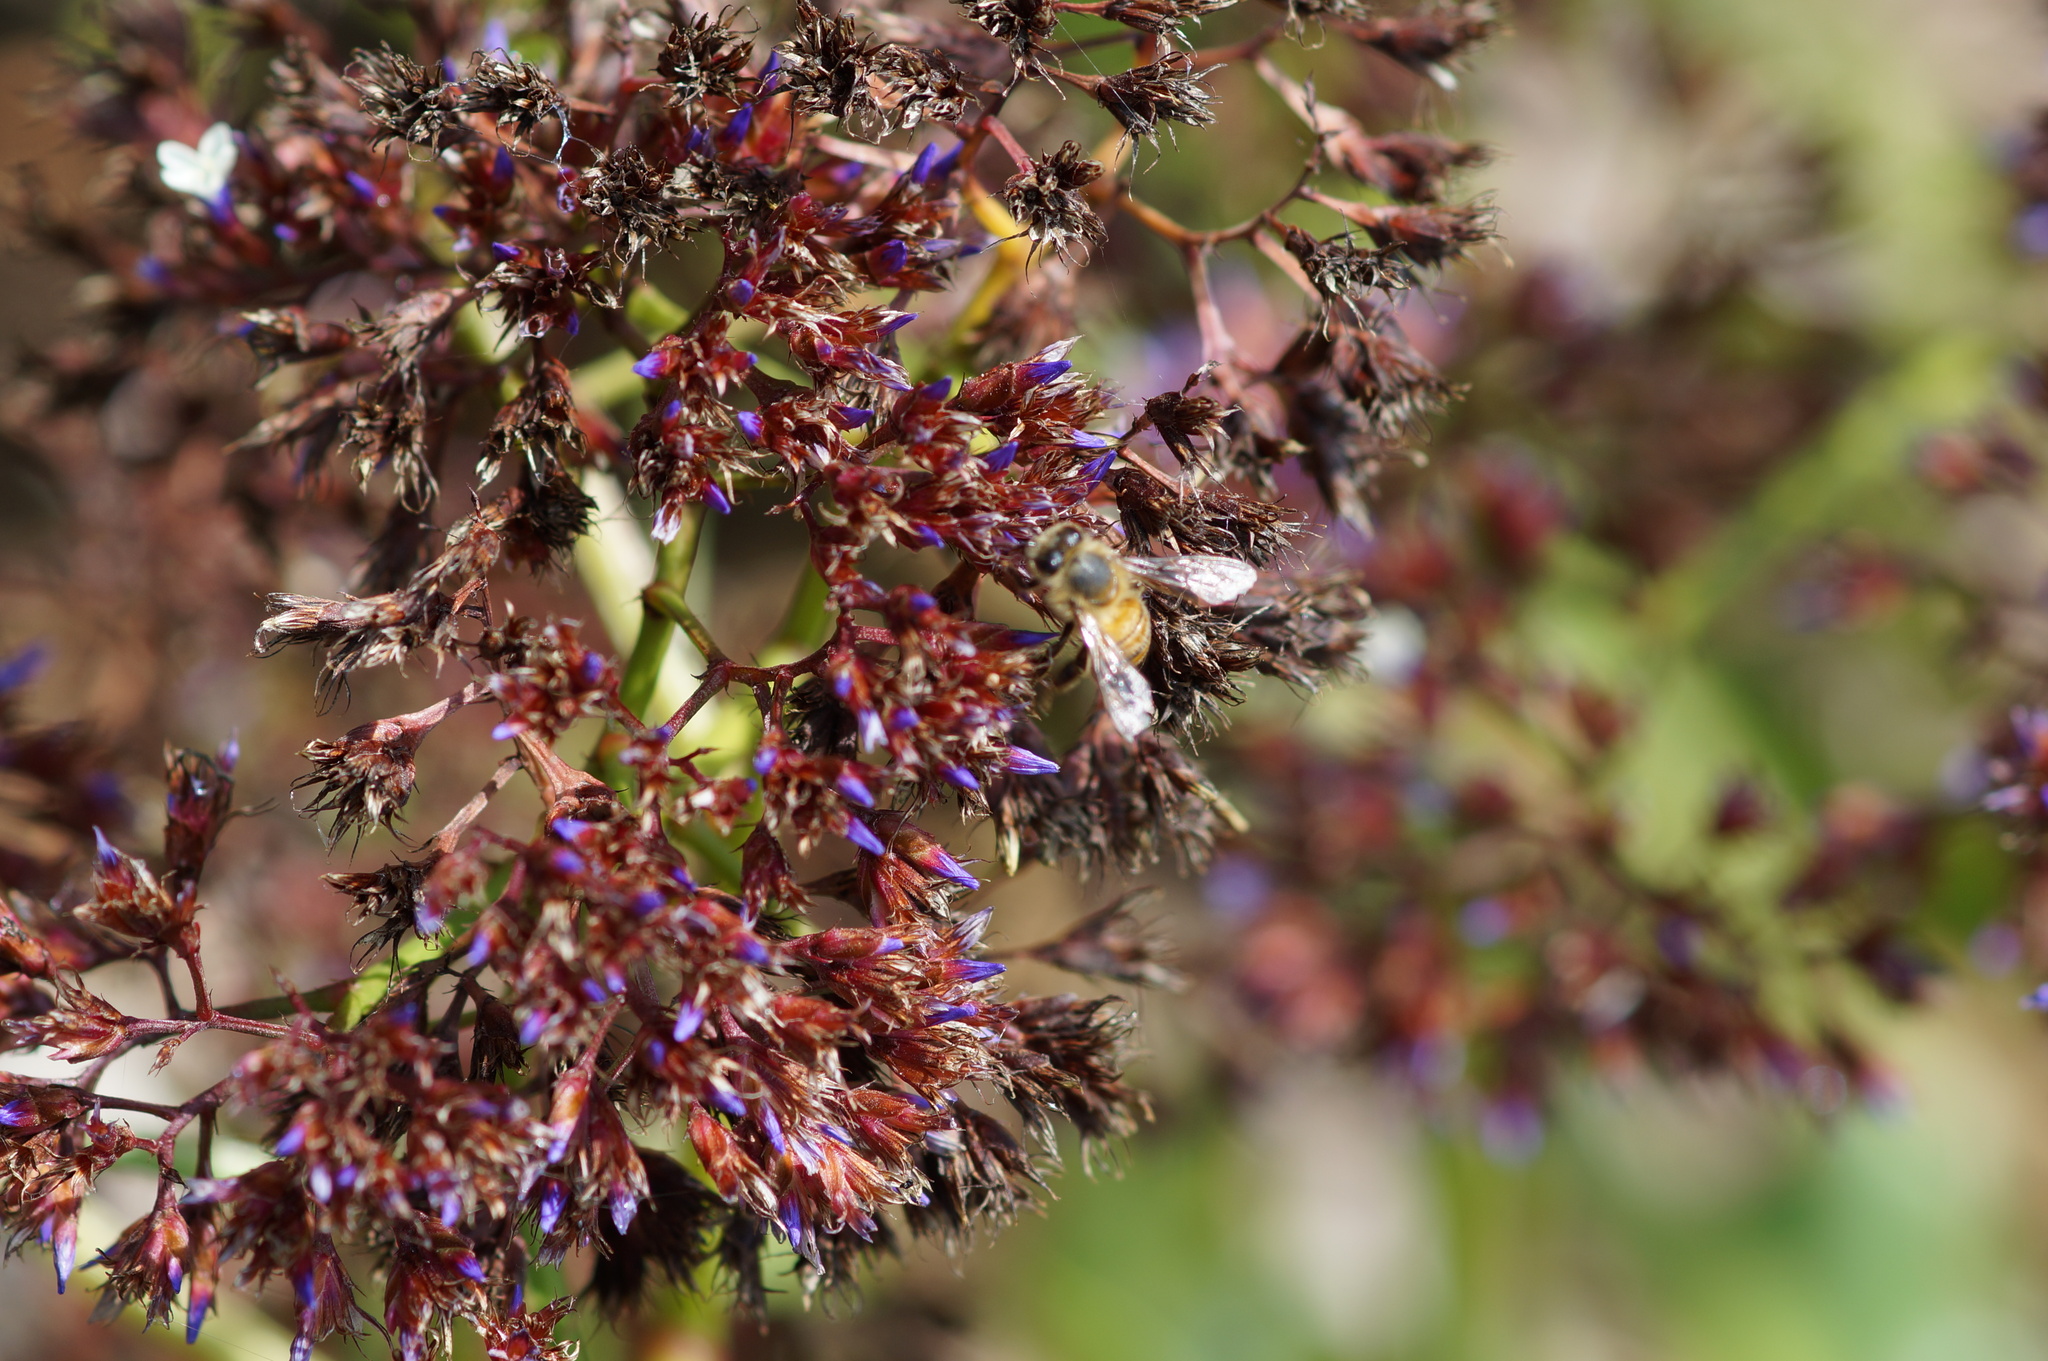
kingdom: Animalia
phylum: Arthropoda
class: Insecta
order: Hymenoptera
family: Apidae
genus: Apis
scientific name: Apis mellifera
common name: Honey bee
